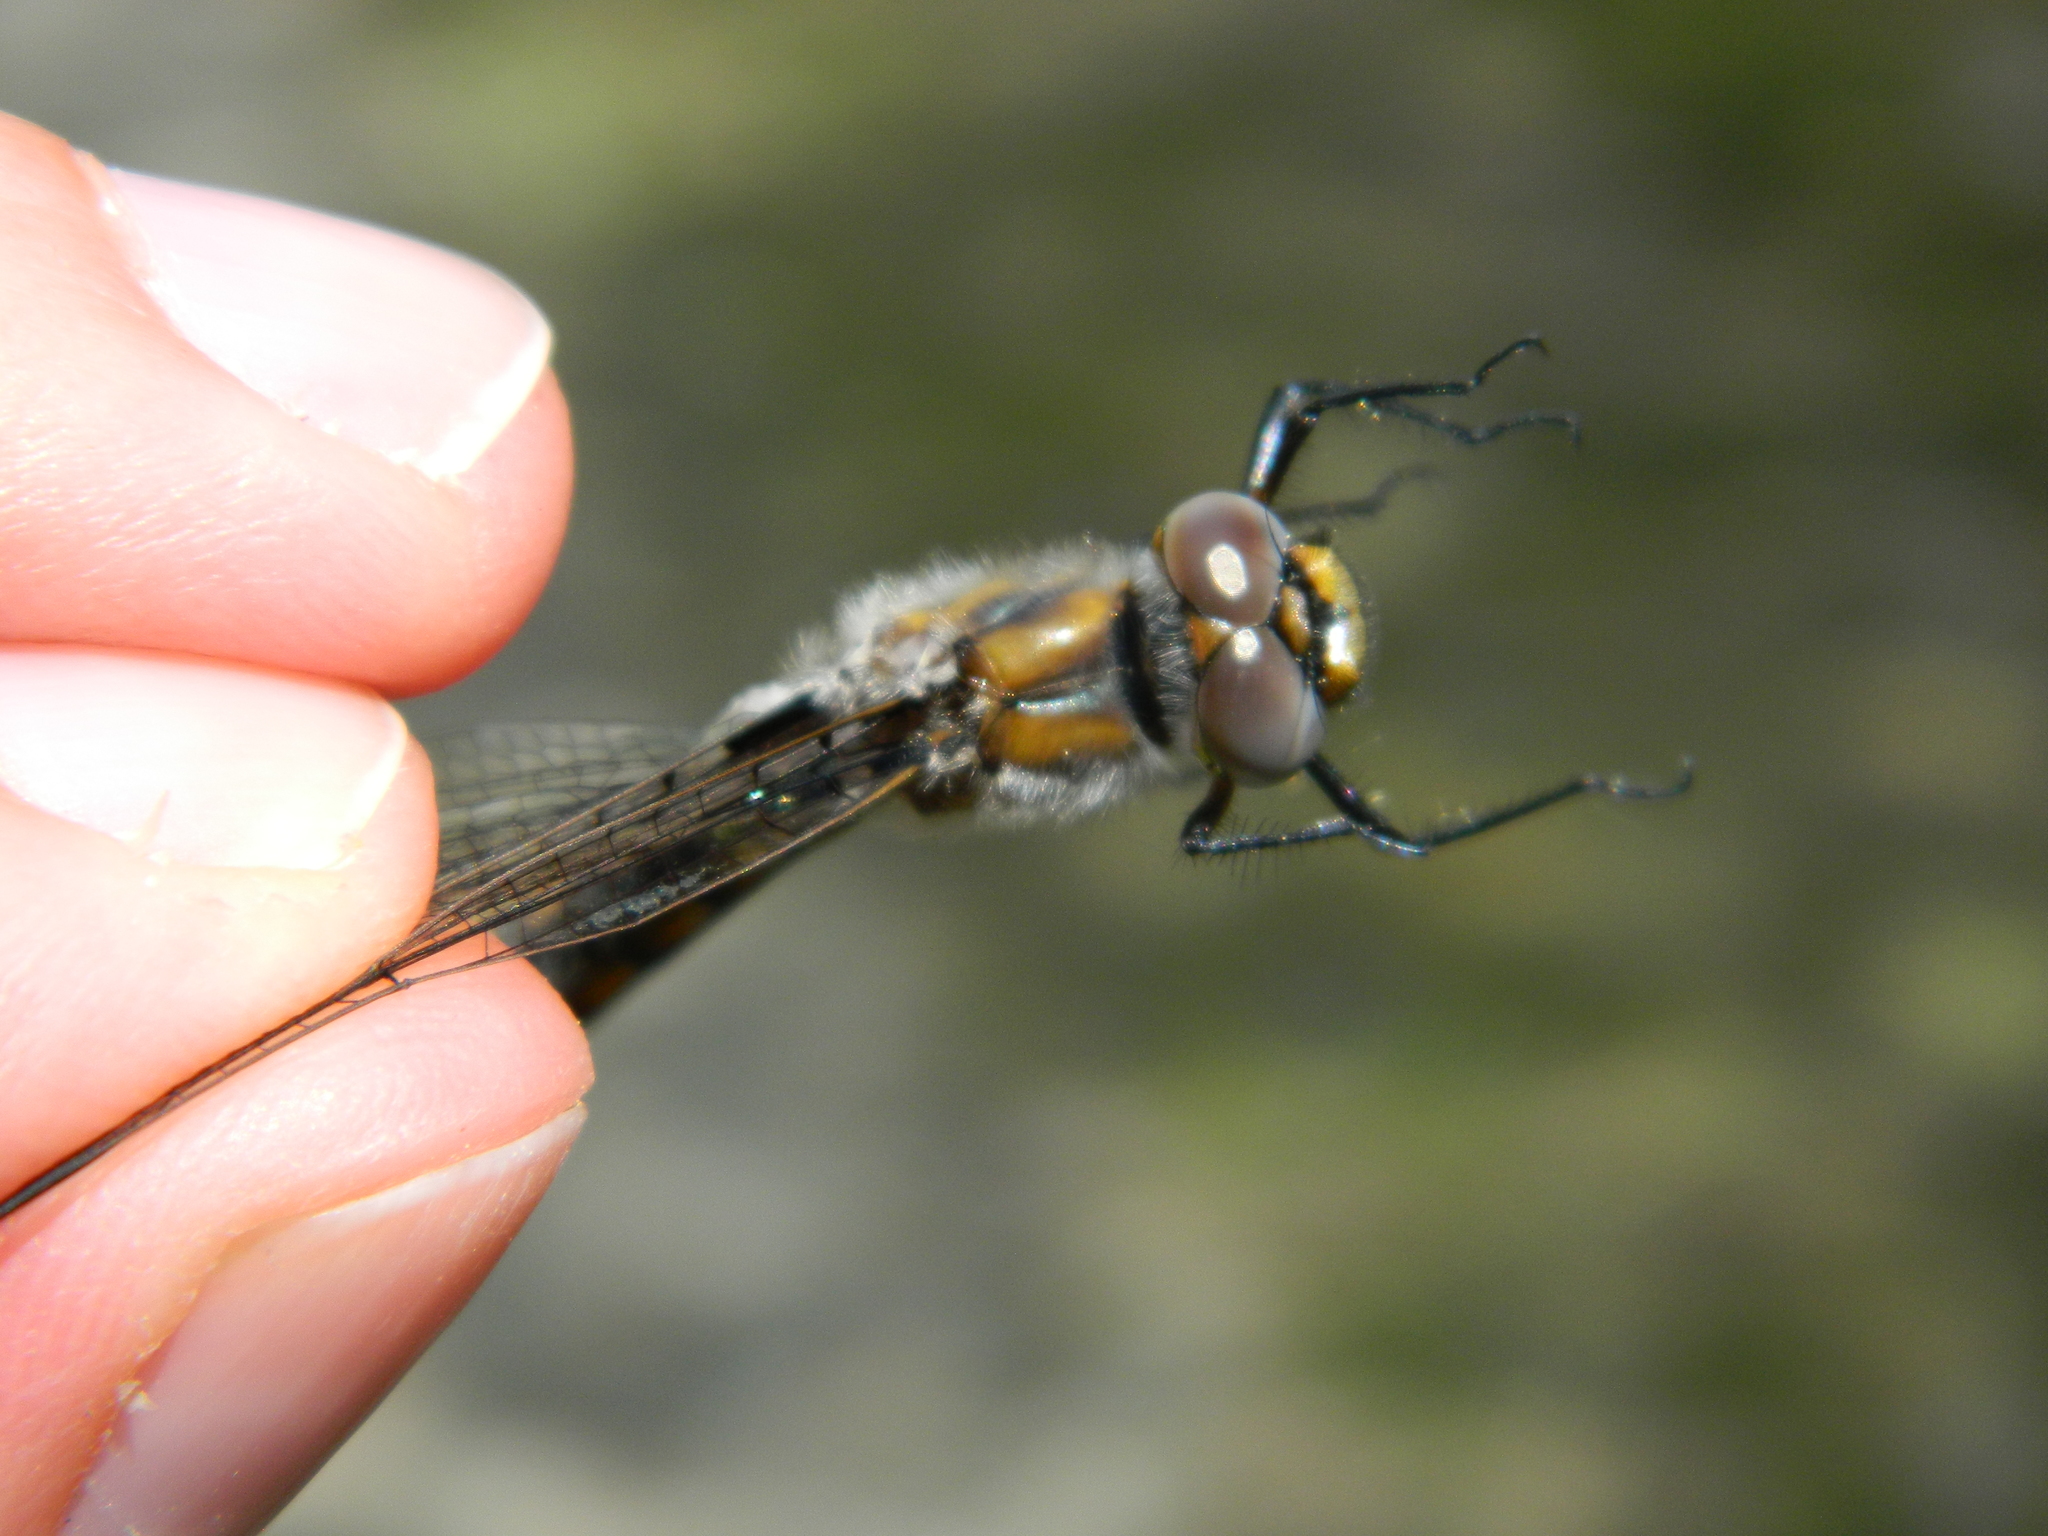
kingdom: Animalia
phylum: Arthropoda
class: Insecta
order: Odonata
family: Corduliidae
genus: Epitheca
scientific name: Epitheca canis
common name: Beaverpond baskettail
